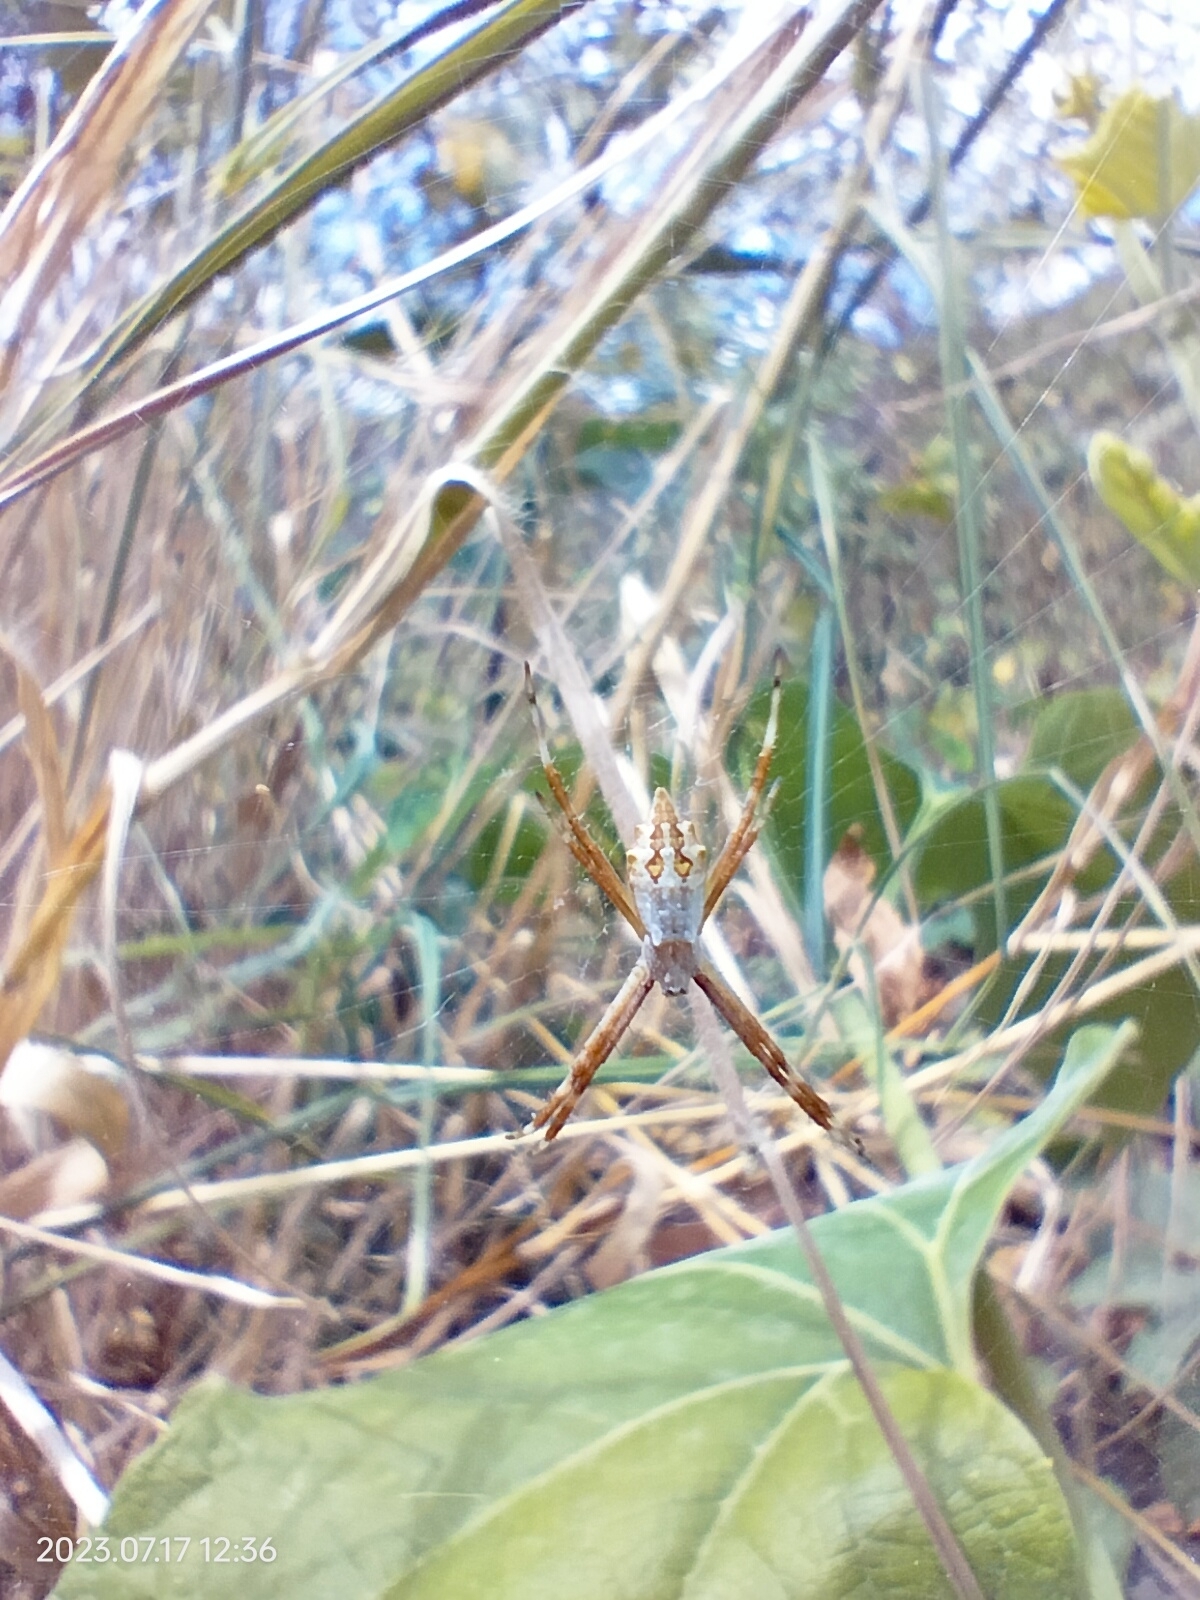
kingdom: Animalia
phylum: Arthropoda
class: Arachnida
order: Araneae
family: Araneidae
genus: Argiope
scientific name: Argiope argentata
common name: Orb weavers
